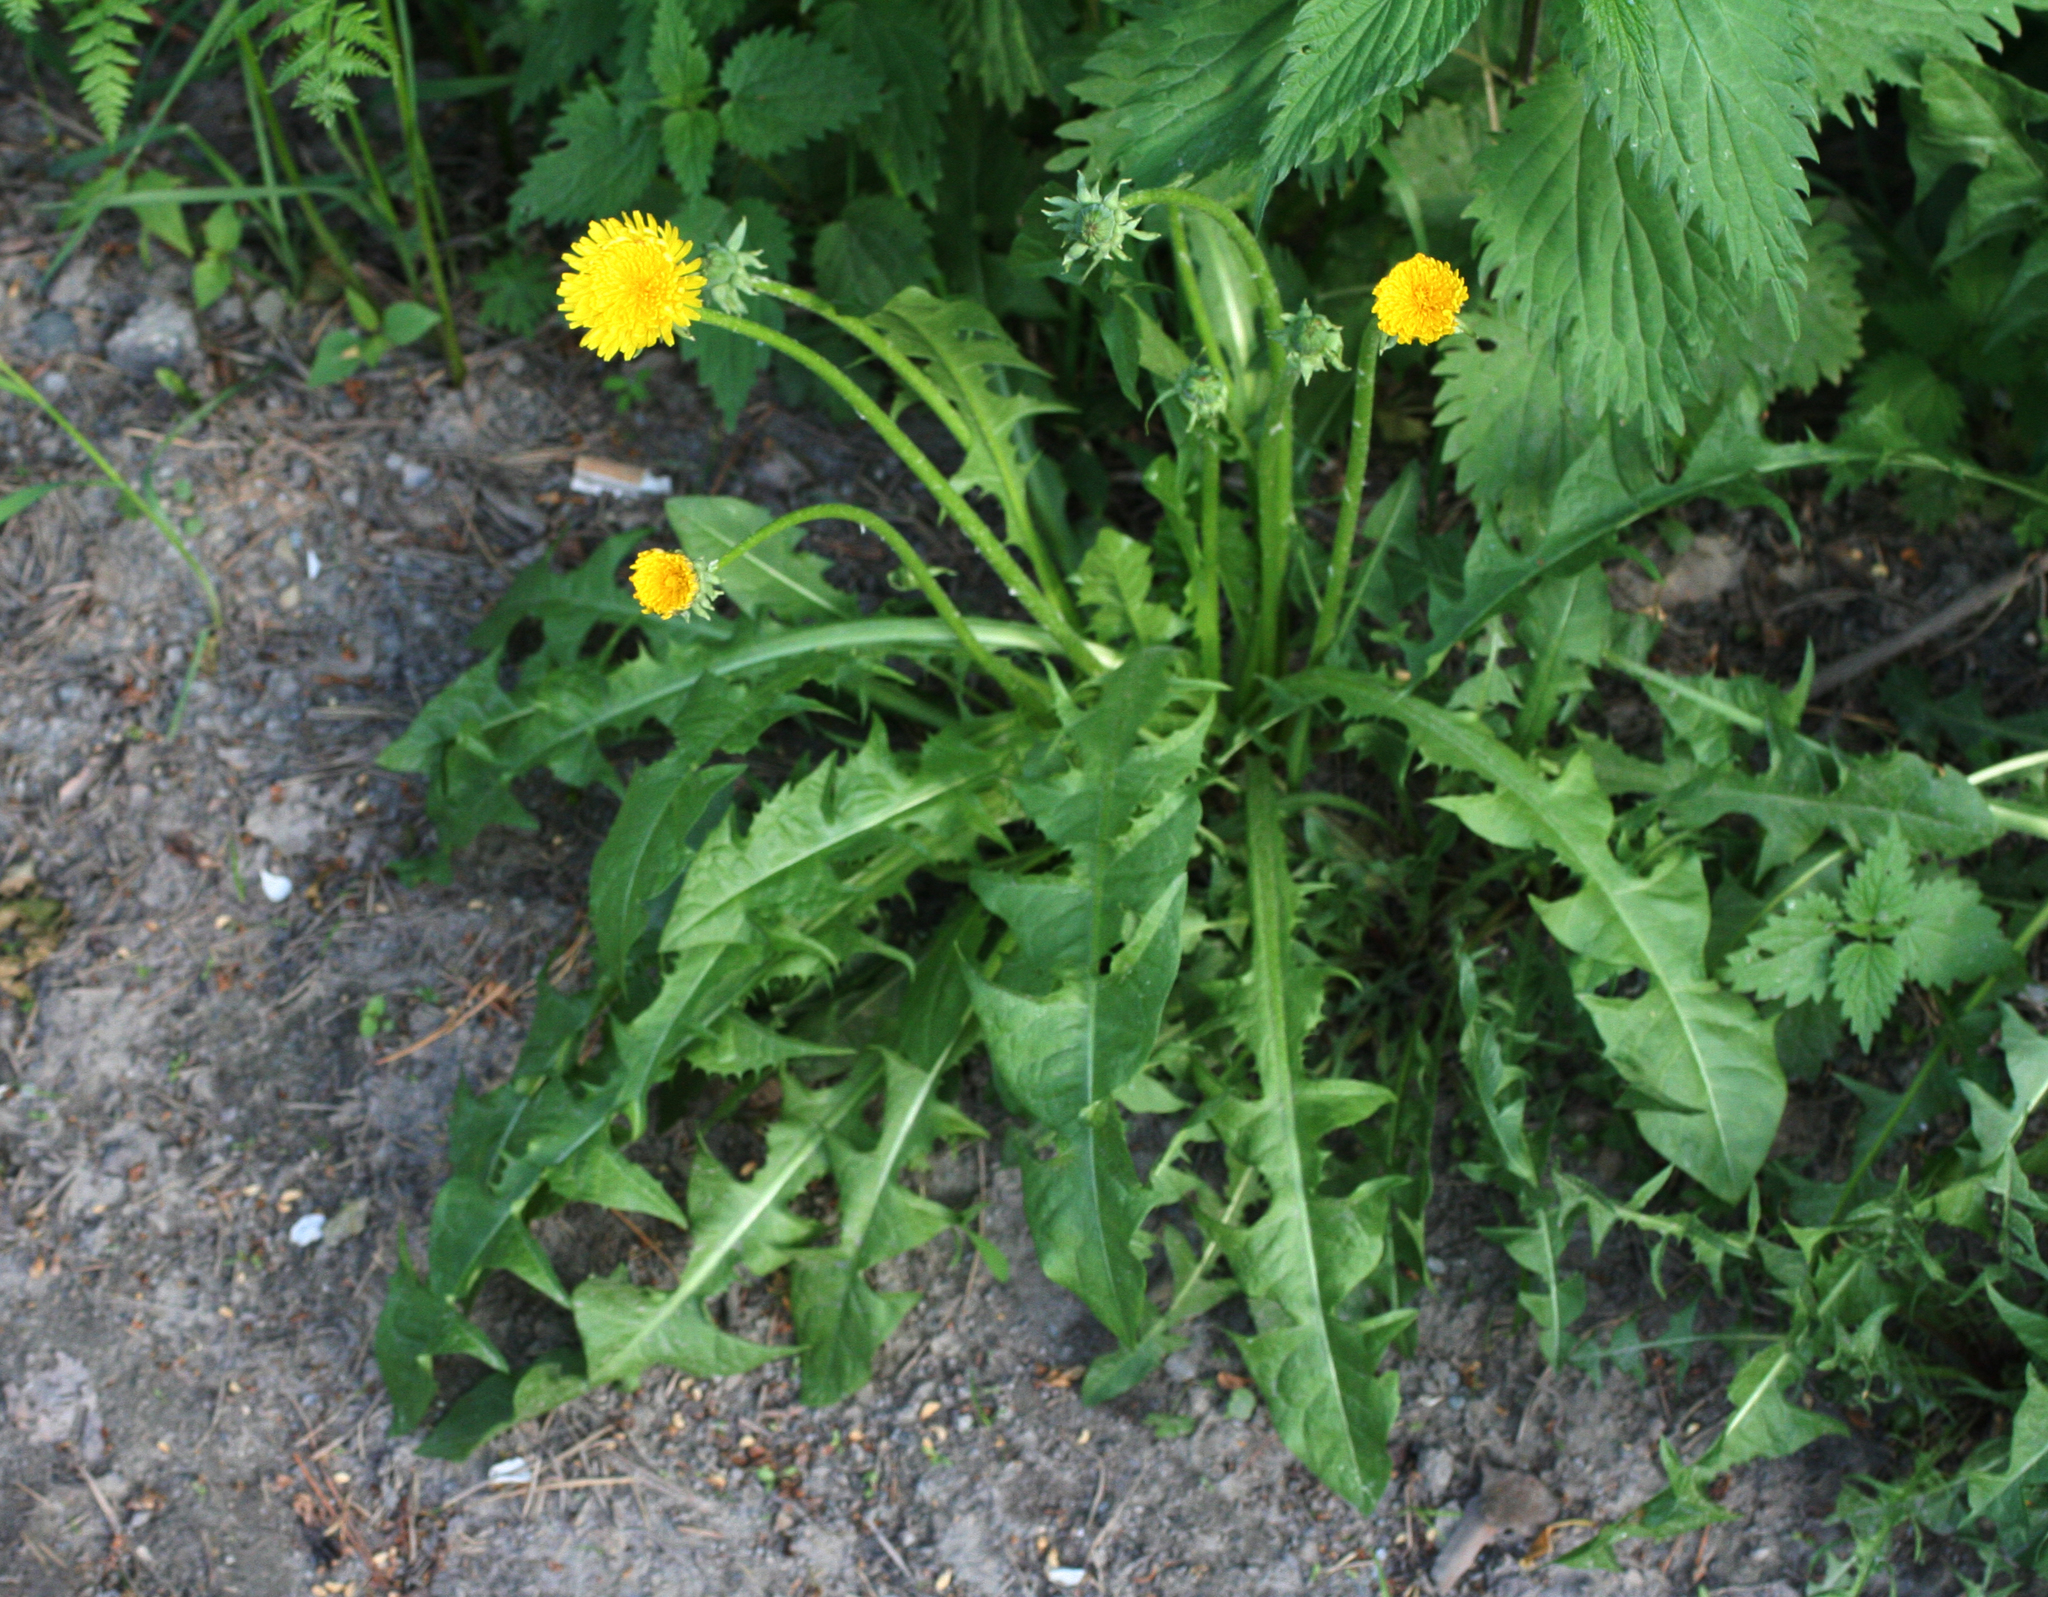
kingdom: Plantae
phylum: Tracheophyta
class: Magnoliopsida
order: Asterales
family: Asteraceae
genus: Taraxacum
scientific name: Taraxacum officinale
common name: Common dandelion
